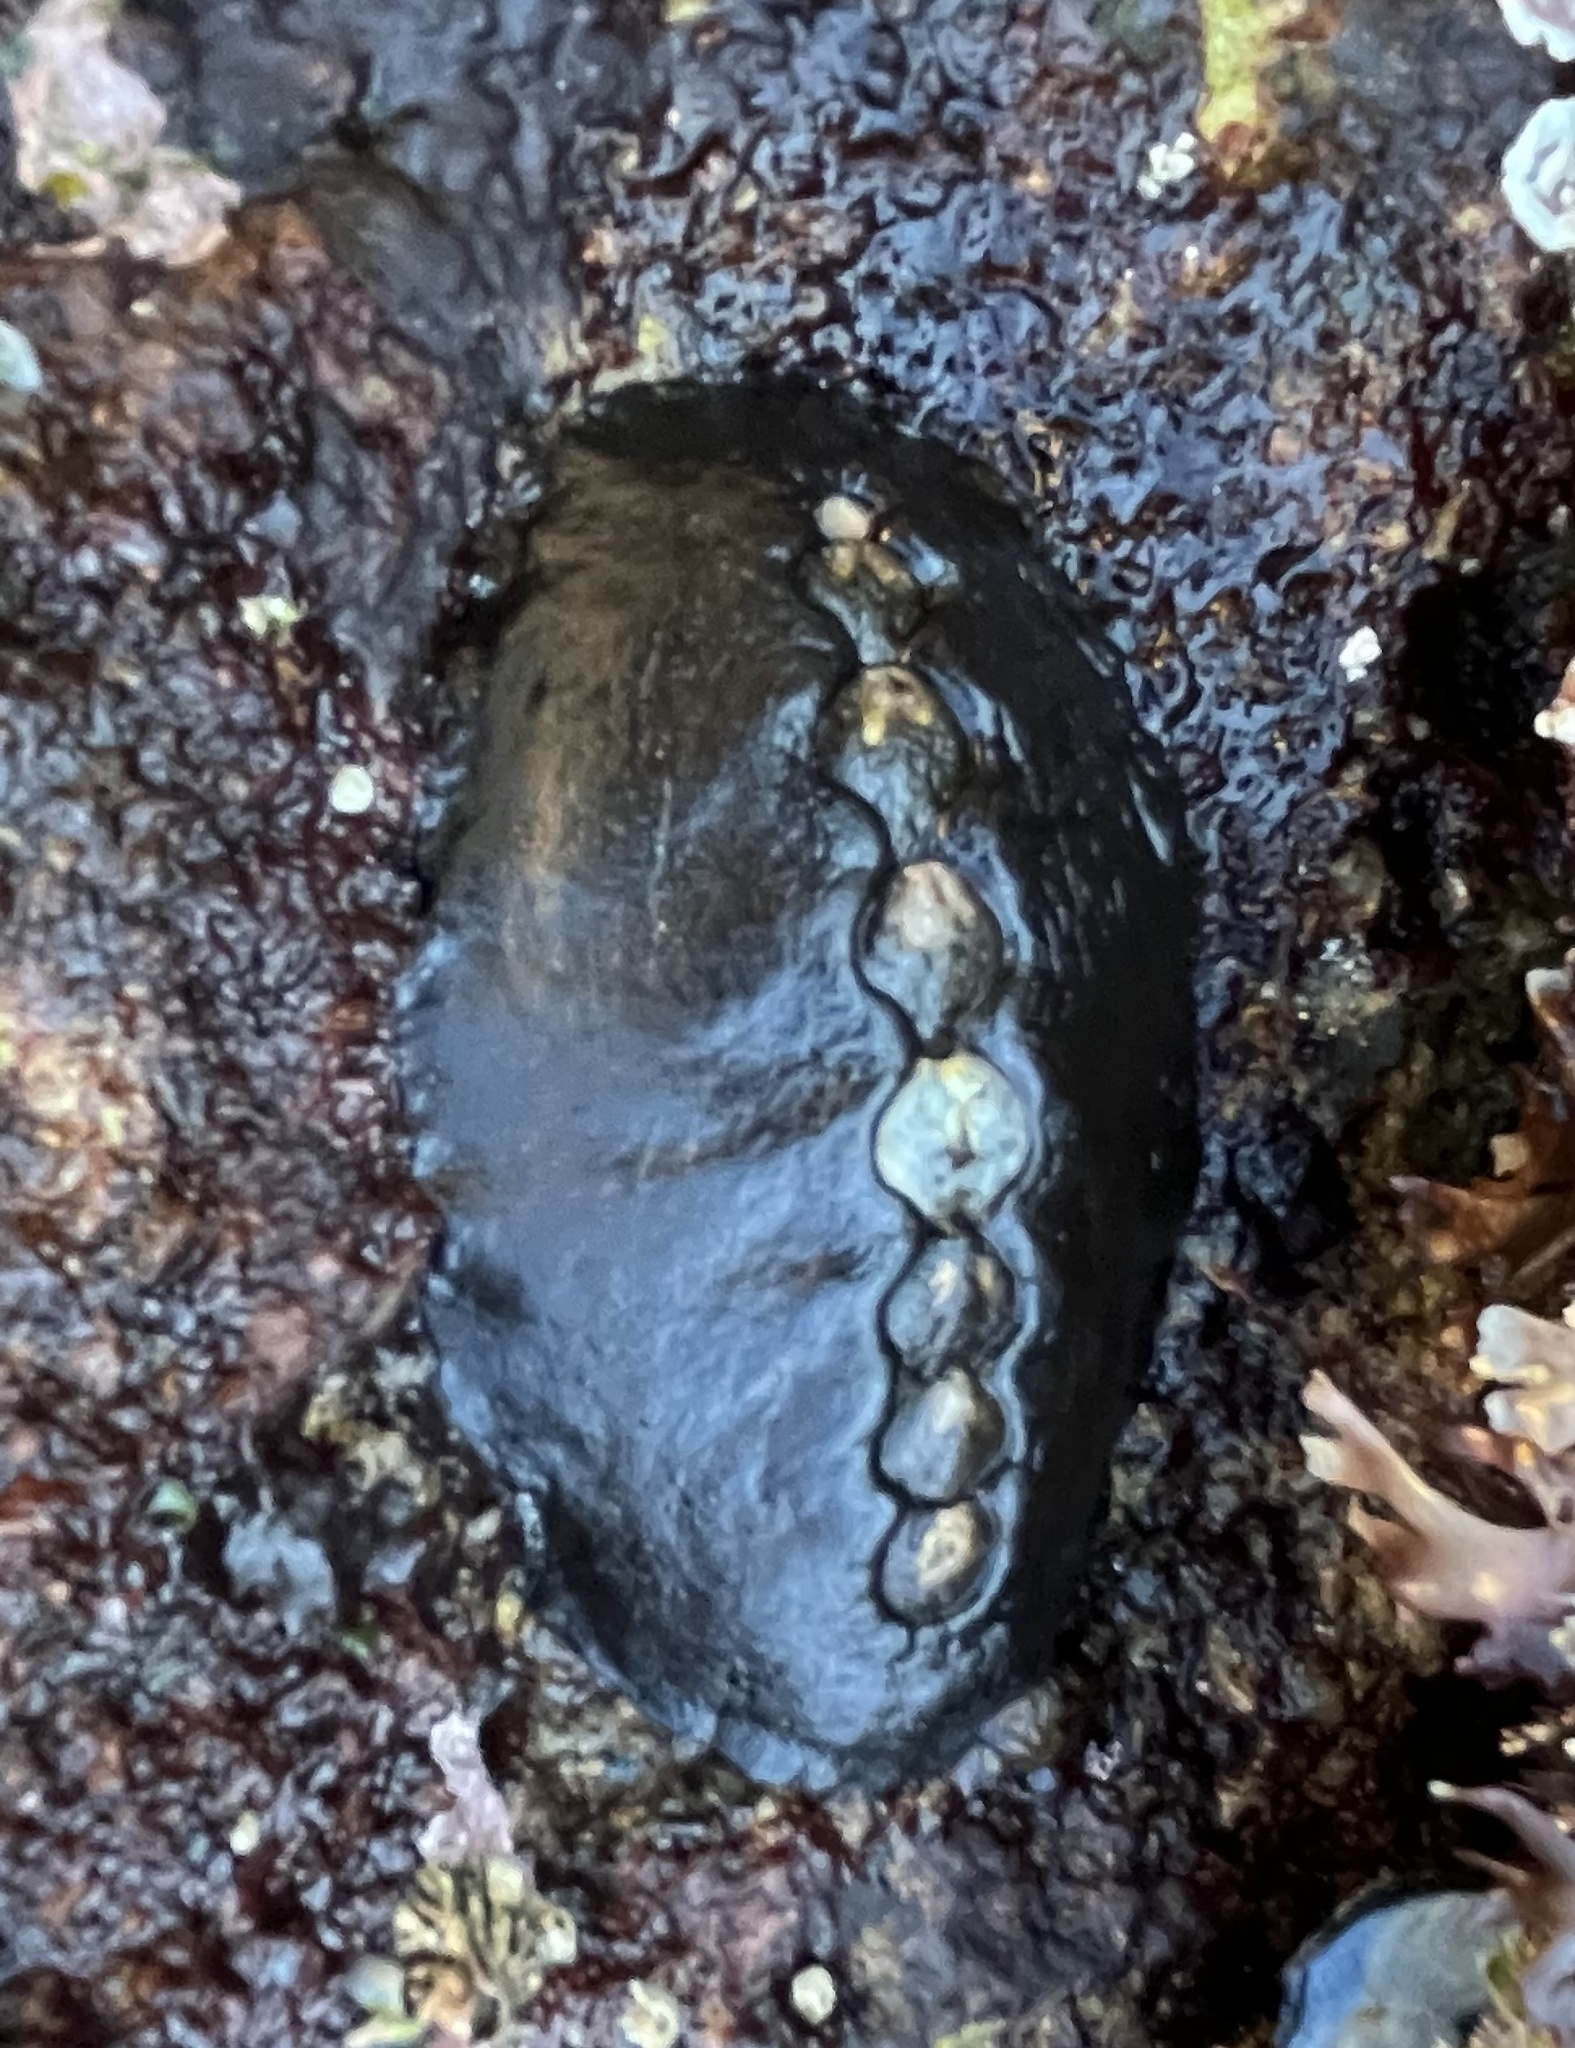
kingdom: Animalia
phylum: Mollusca
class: Polyplacophora
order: Chitonida
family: Mopaliidae
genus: Katharina
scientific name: Katharina tunicata
